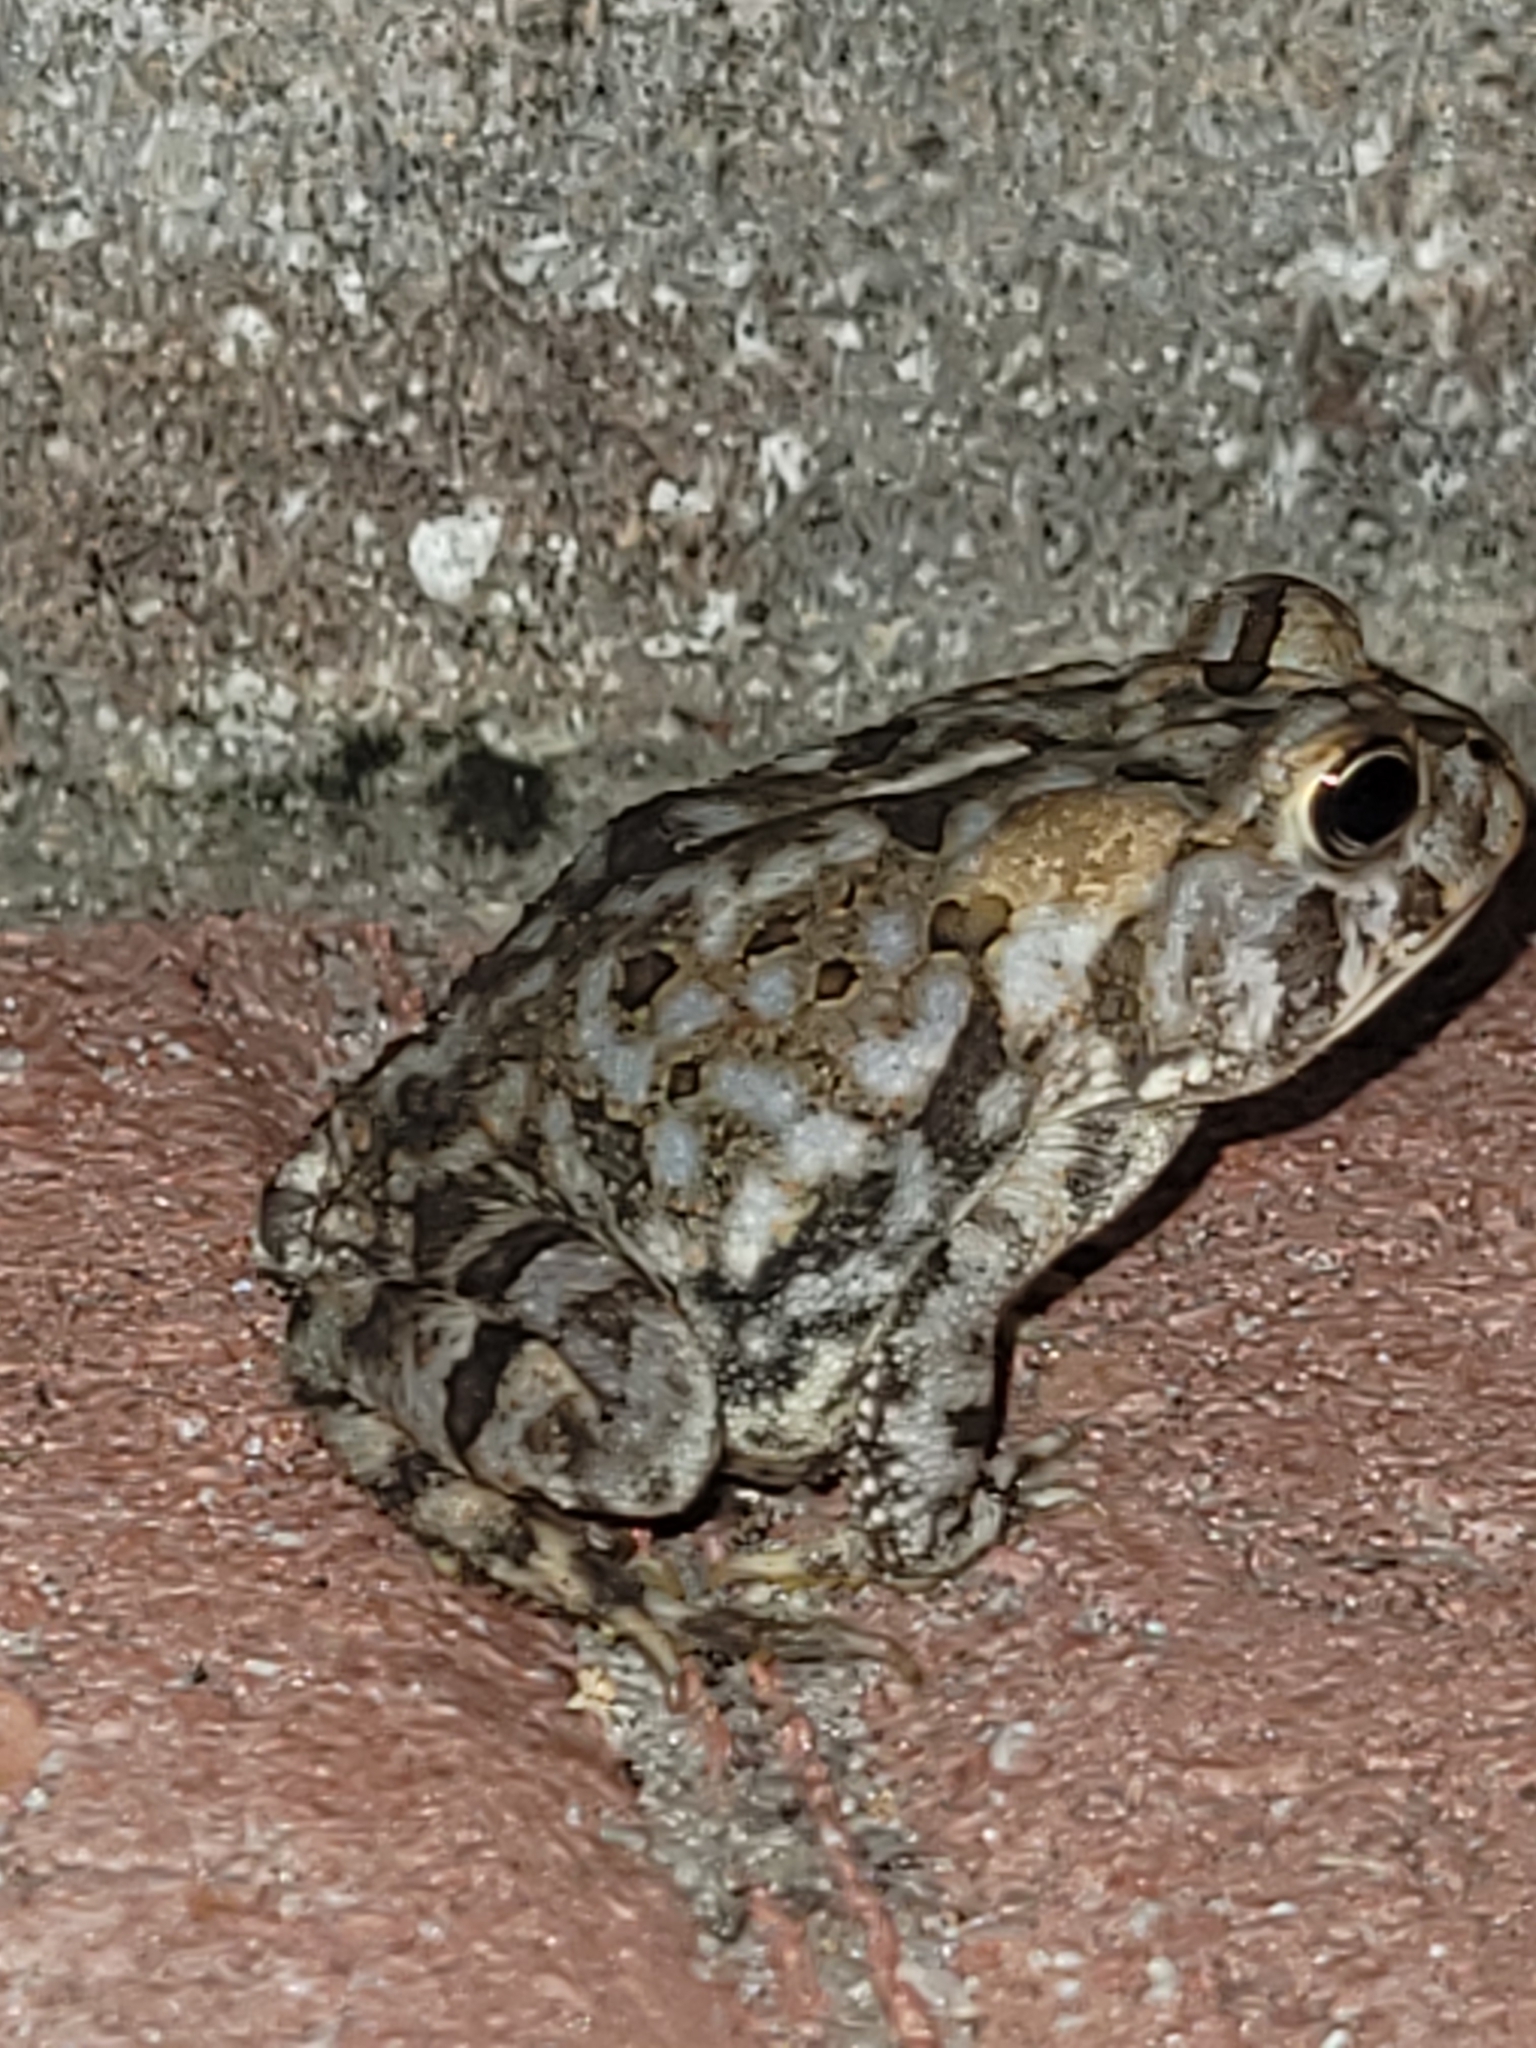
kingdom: Animalia
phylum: Chordata
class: Amphibia
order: Anura
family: Bufonidae
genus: Anaxyrus
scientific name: Anaxyrus terrestris
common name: Southern toad
